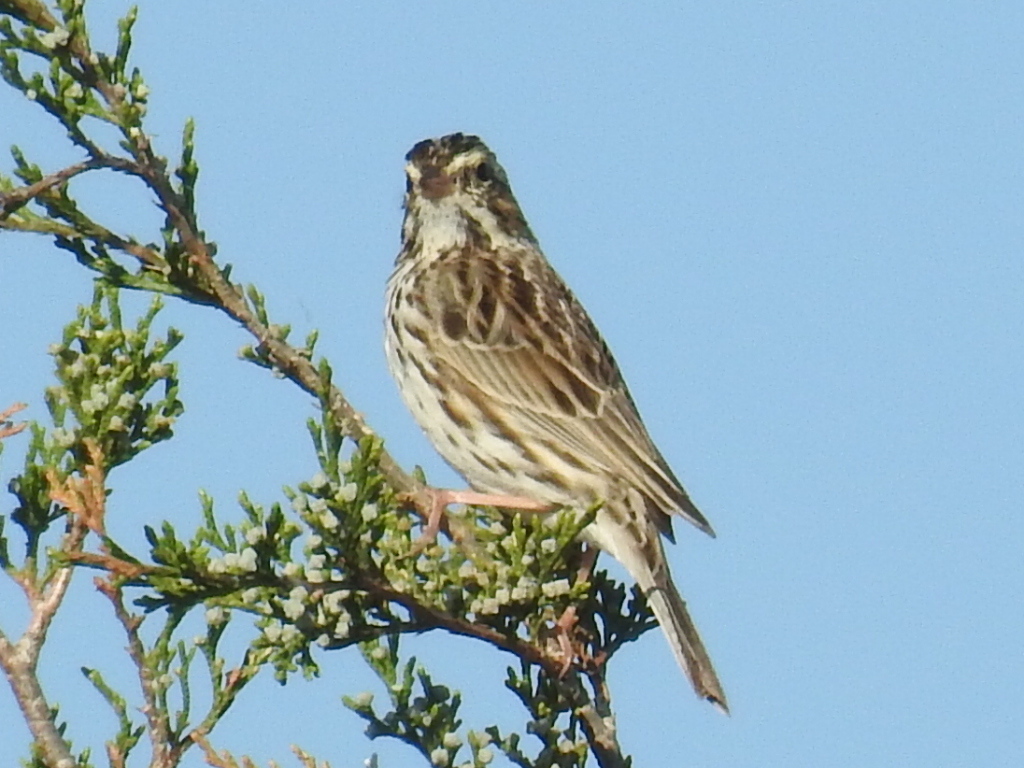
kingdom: Animalia
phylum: Chordata
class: Aves
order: Passeriformes
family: Passerellidae
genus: Passerculus
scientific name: Passerculus sandwichensis
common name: Savannah sparrow
